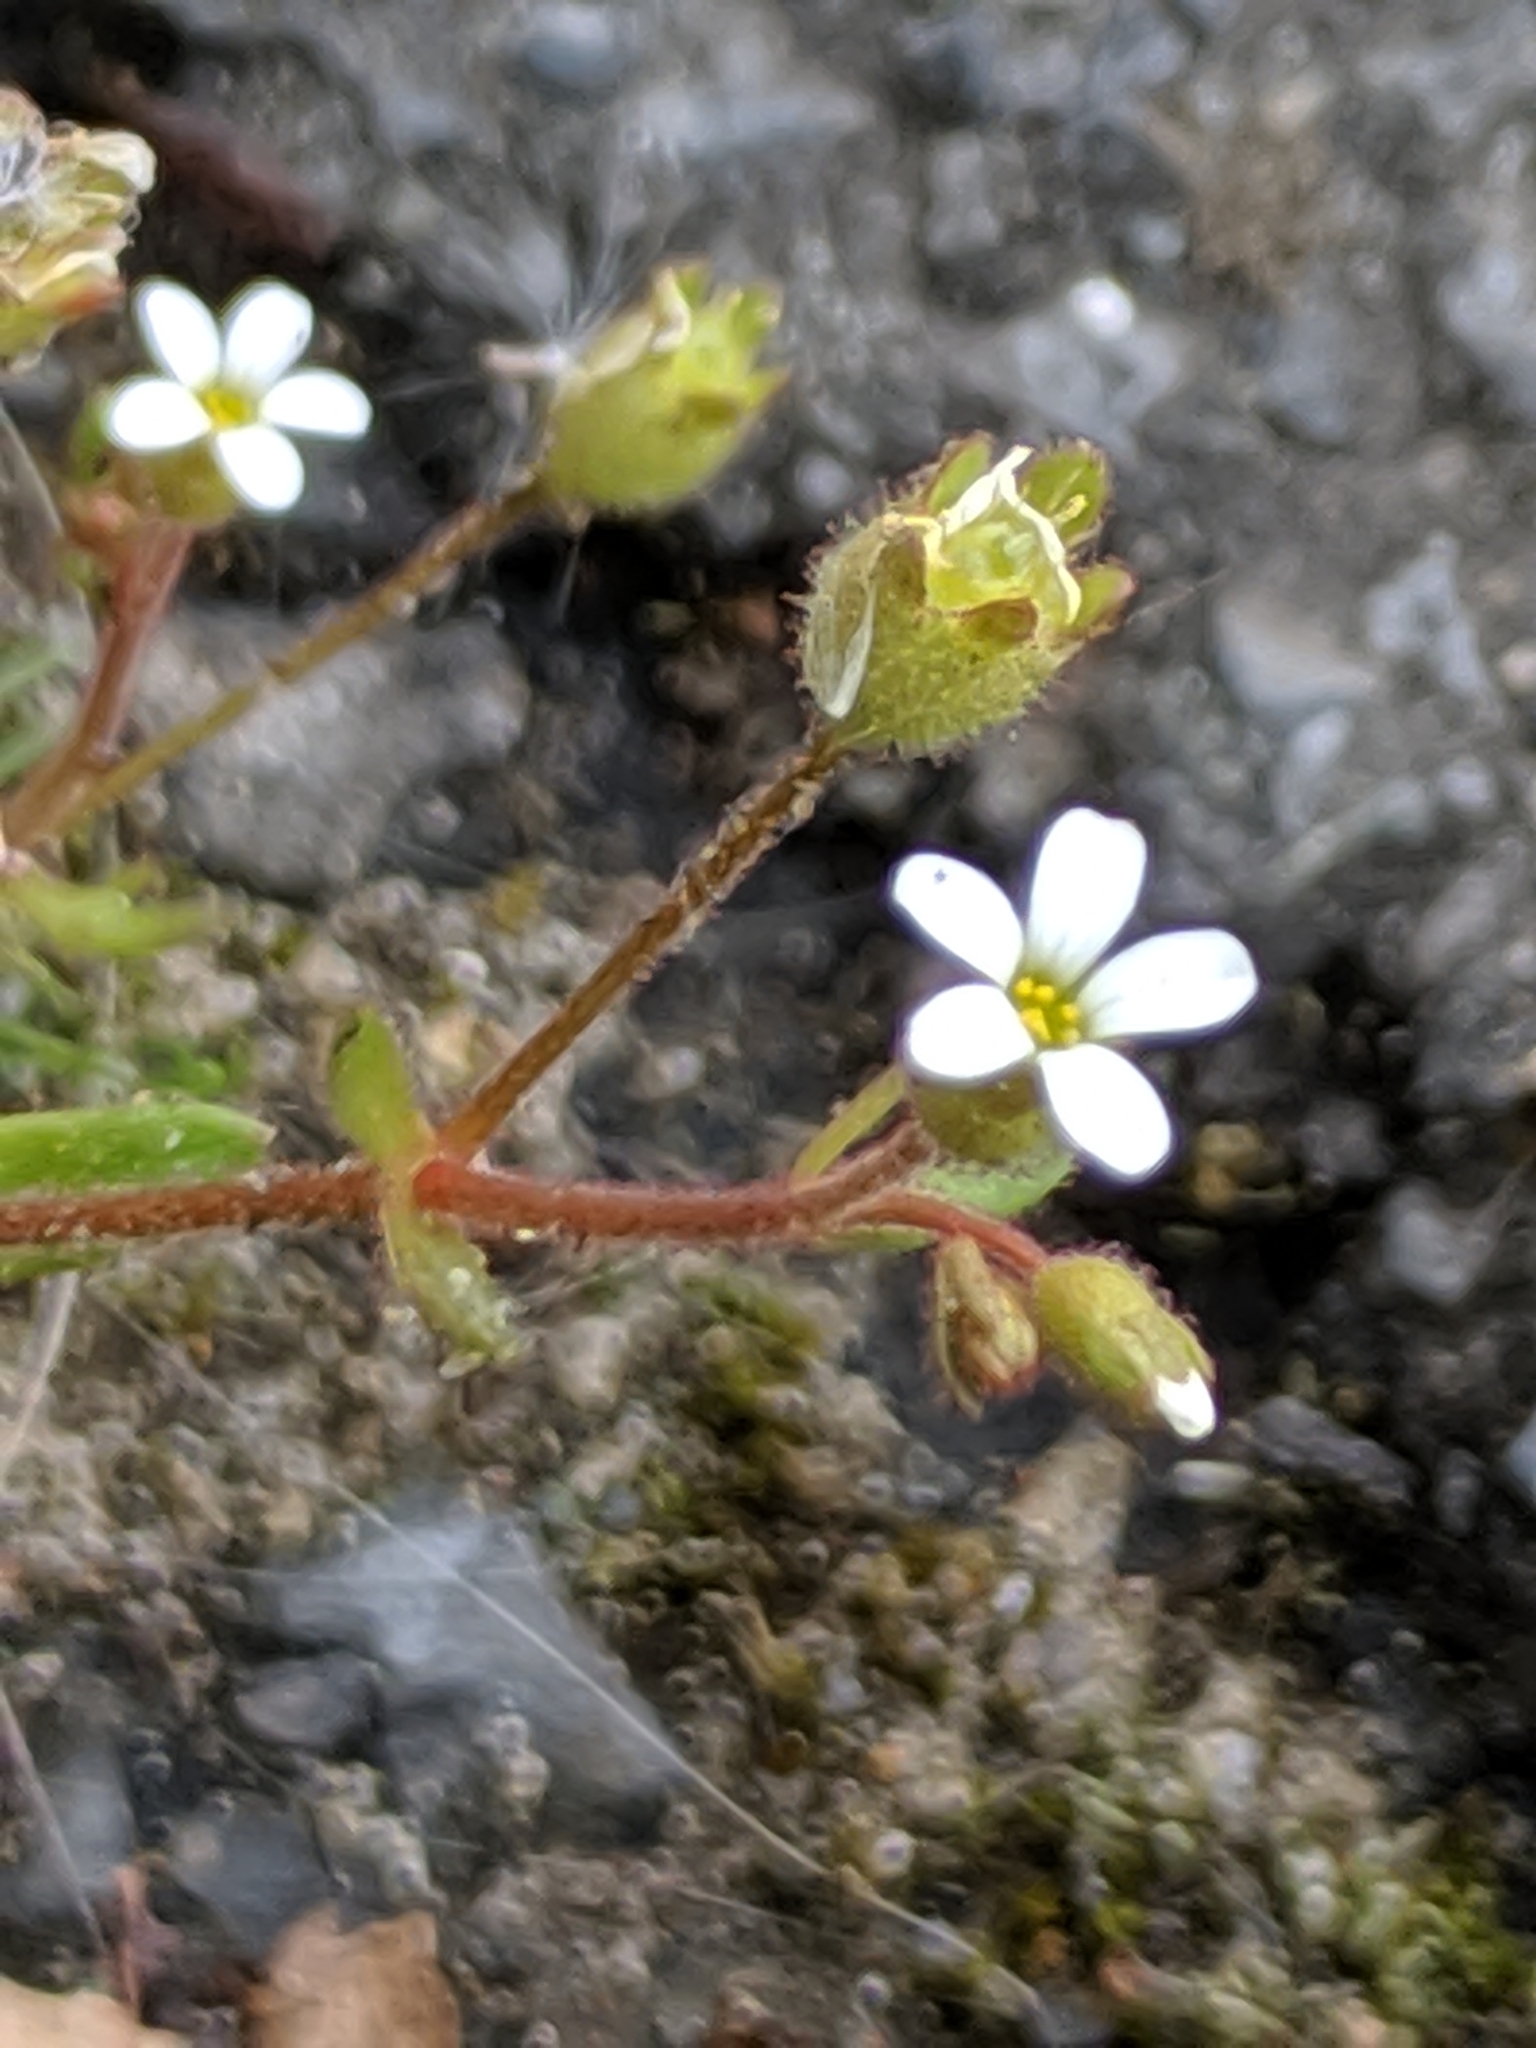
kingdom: Plantae
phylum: Tracheophyta
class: Magnoliopsida
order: Saxifragales
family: Saxifragaceae
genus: Saxifraga
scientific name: Saxifraga tridactylites
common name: Rue-leaved saxifrage
